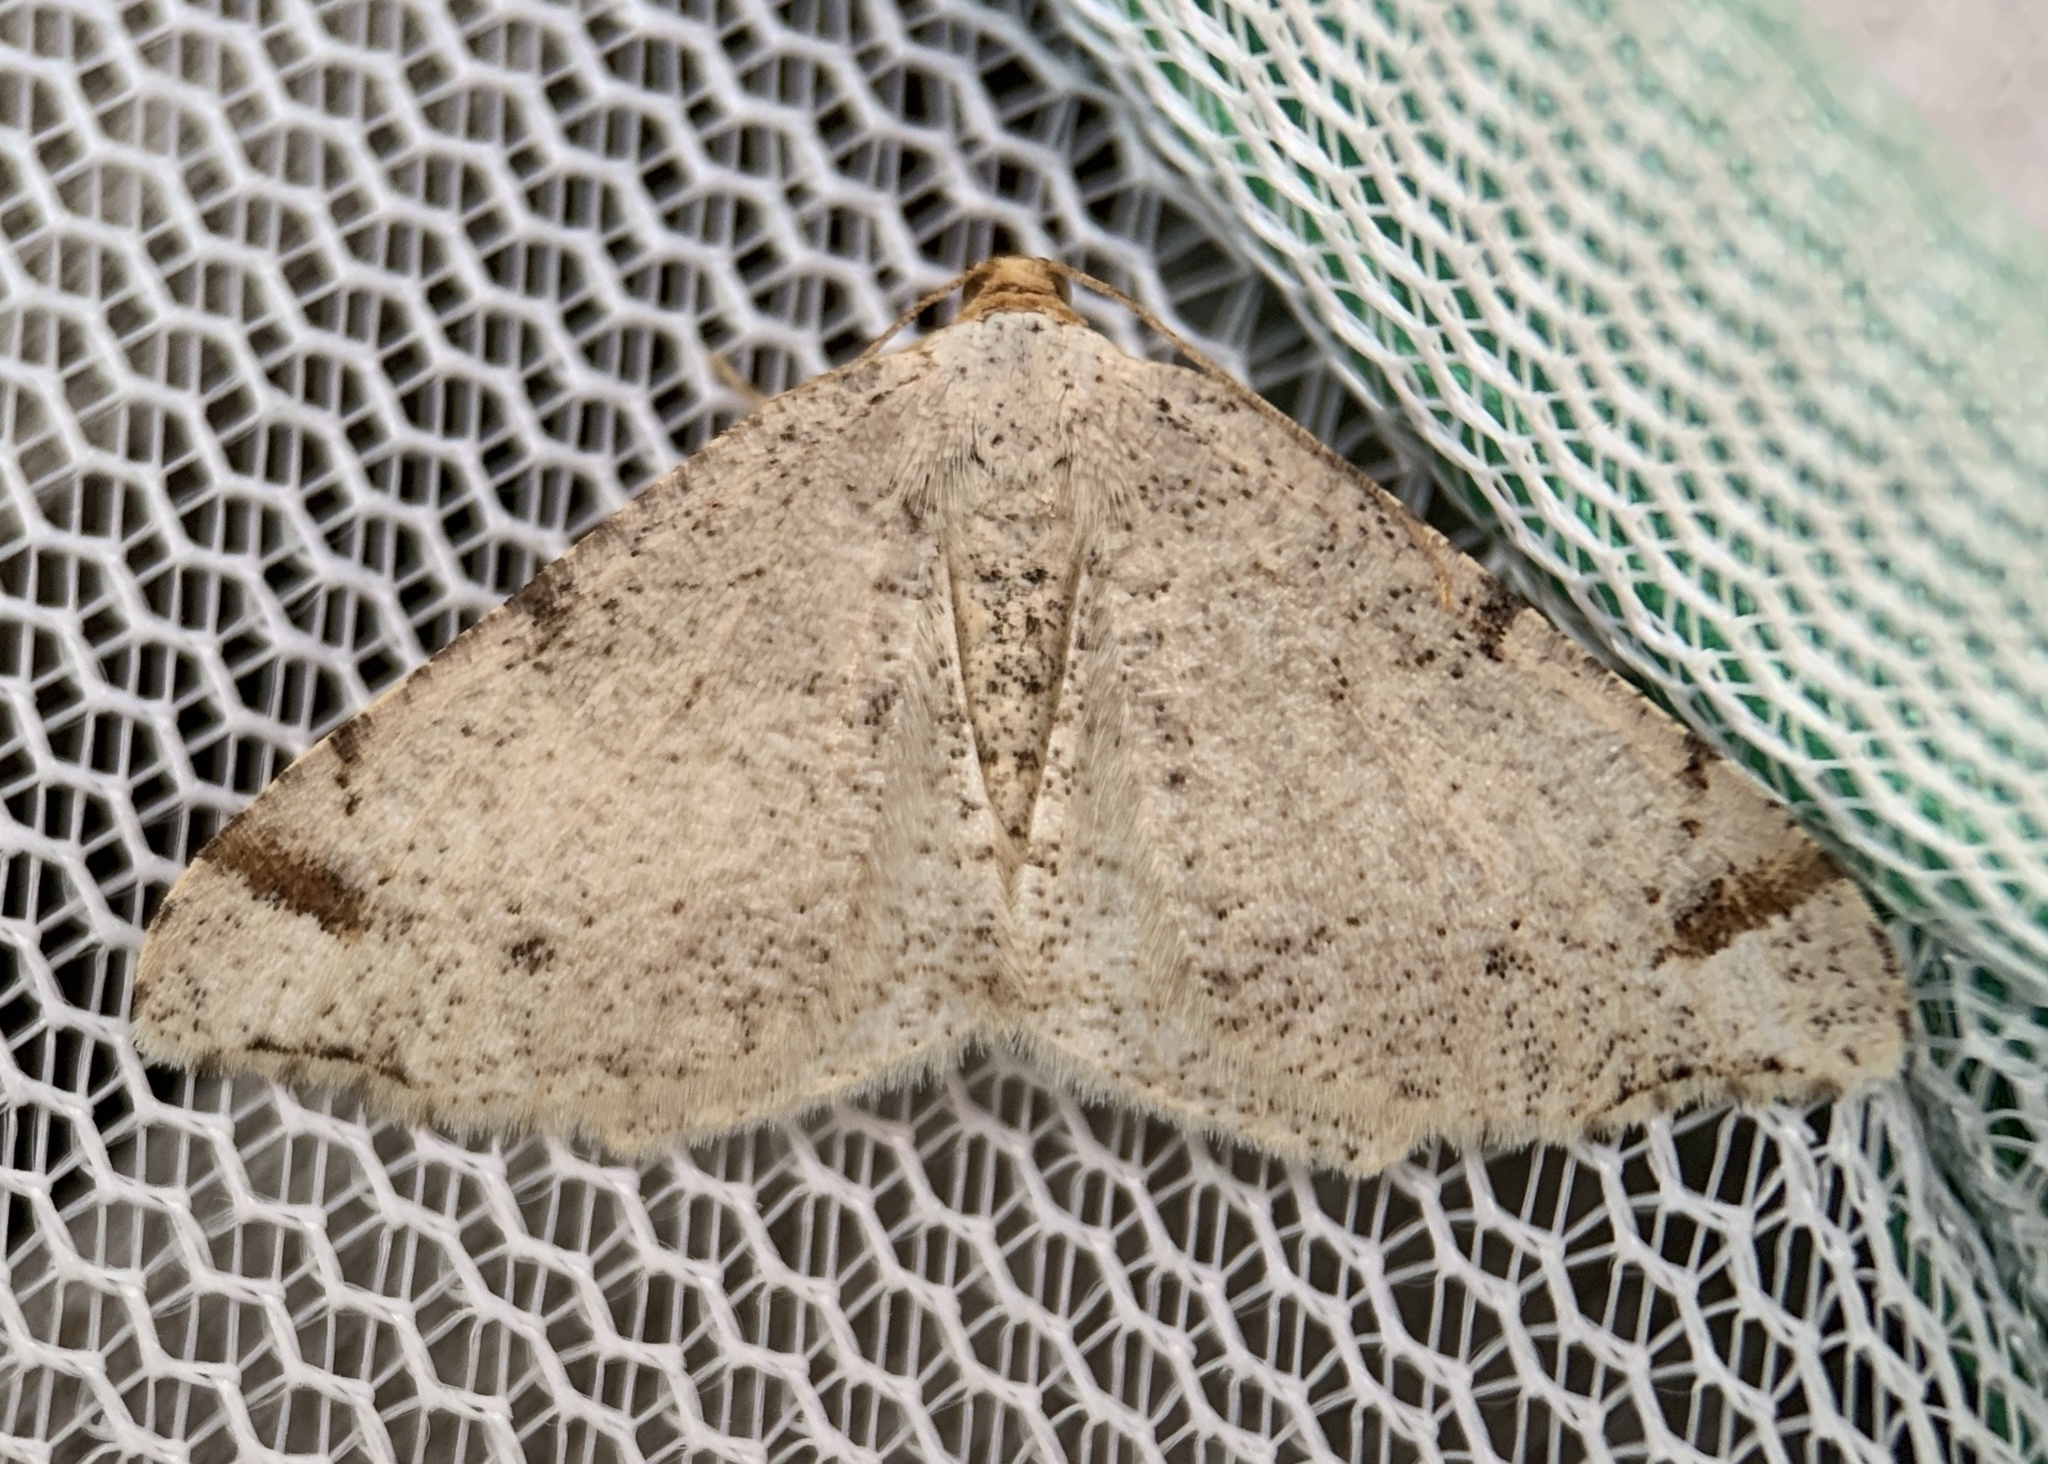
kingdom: Animalia
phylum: Arthropoda
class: Insecta
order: Lepidoptera
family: Geometridae
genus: Macaria
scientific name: Macaria bisignata
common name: Red-headed inchworm
